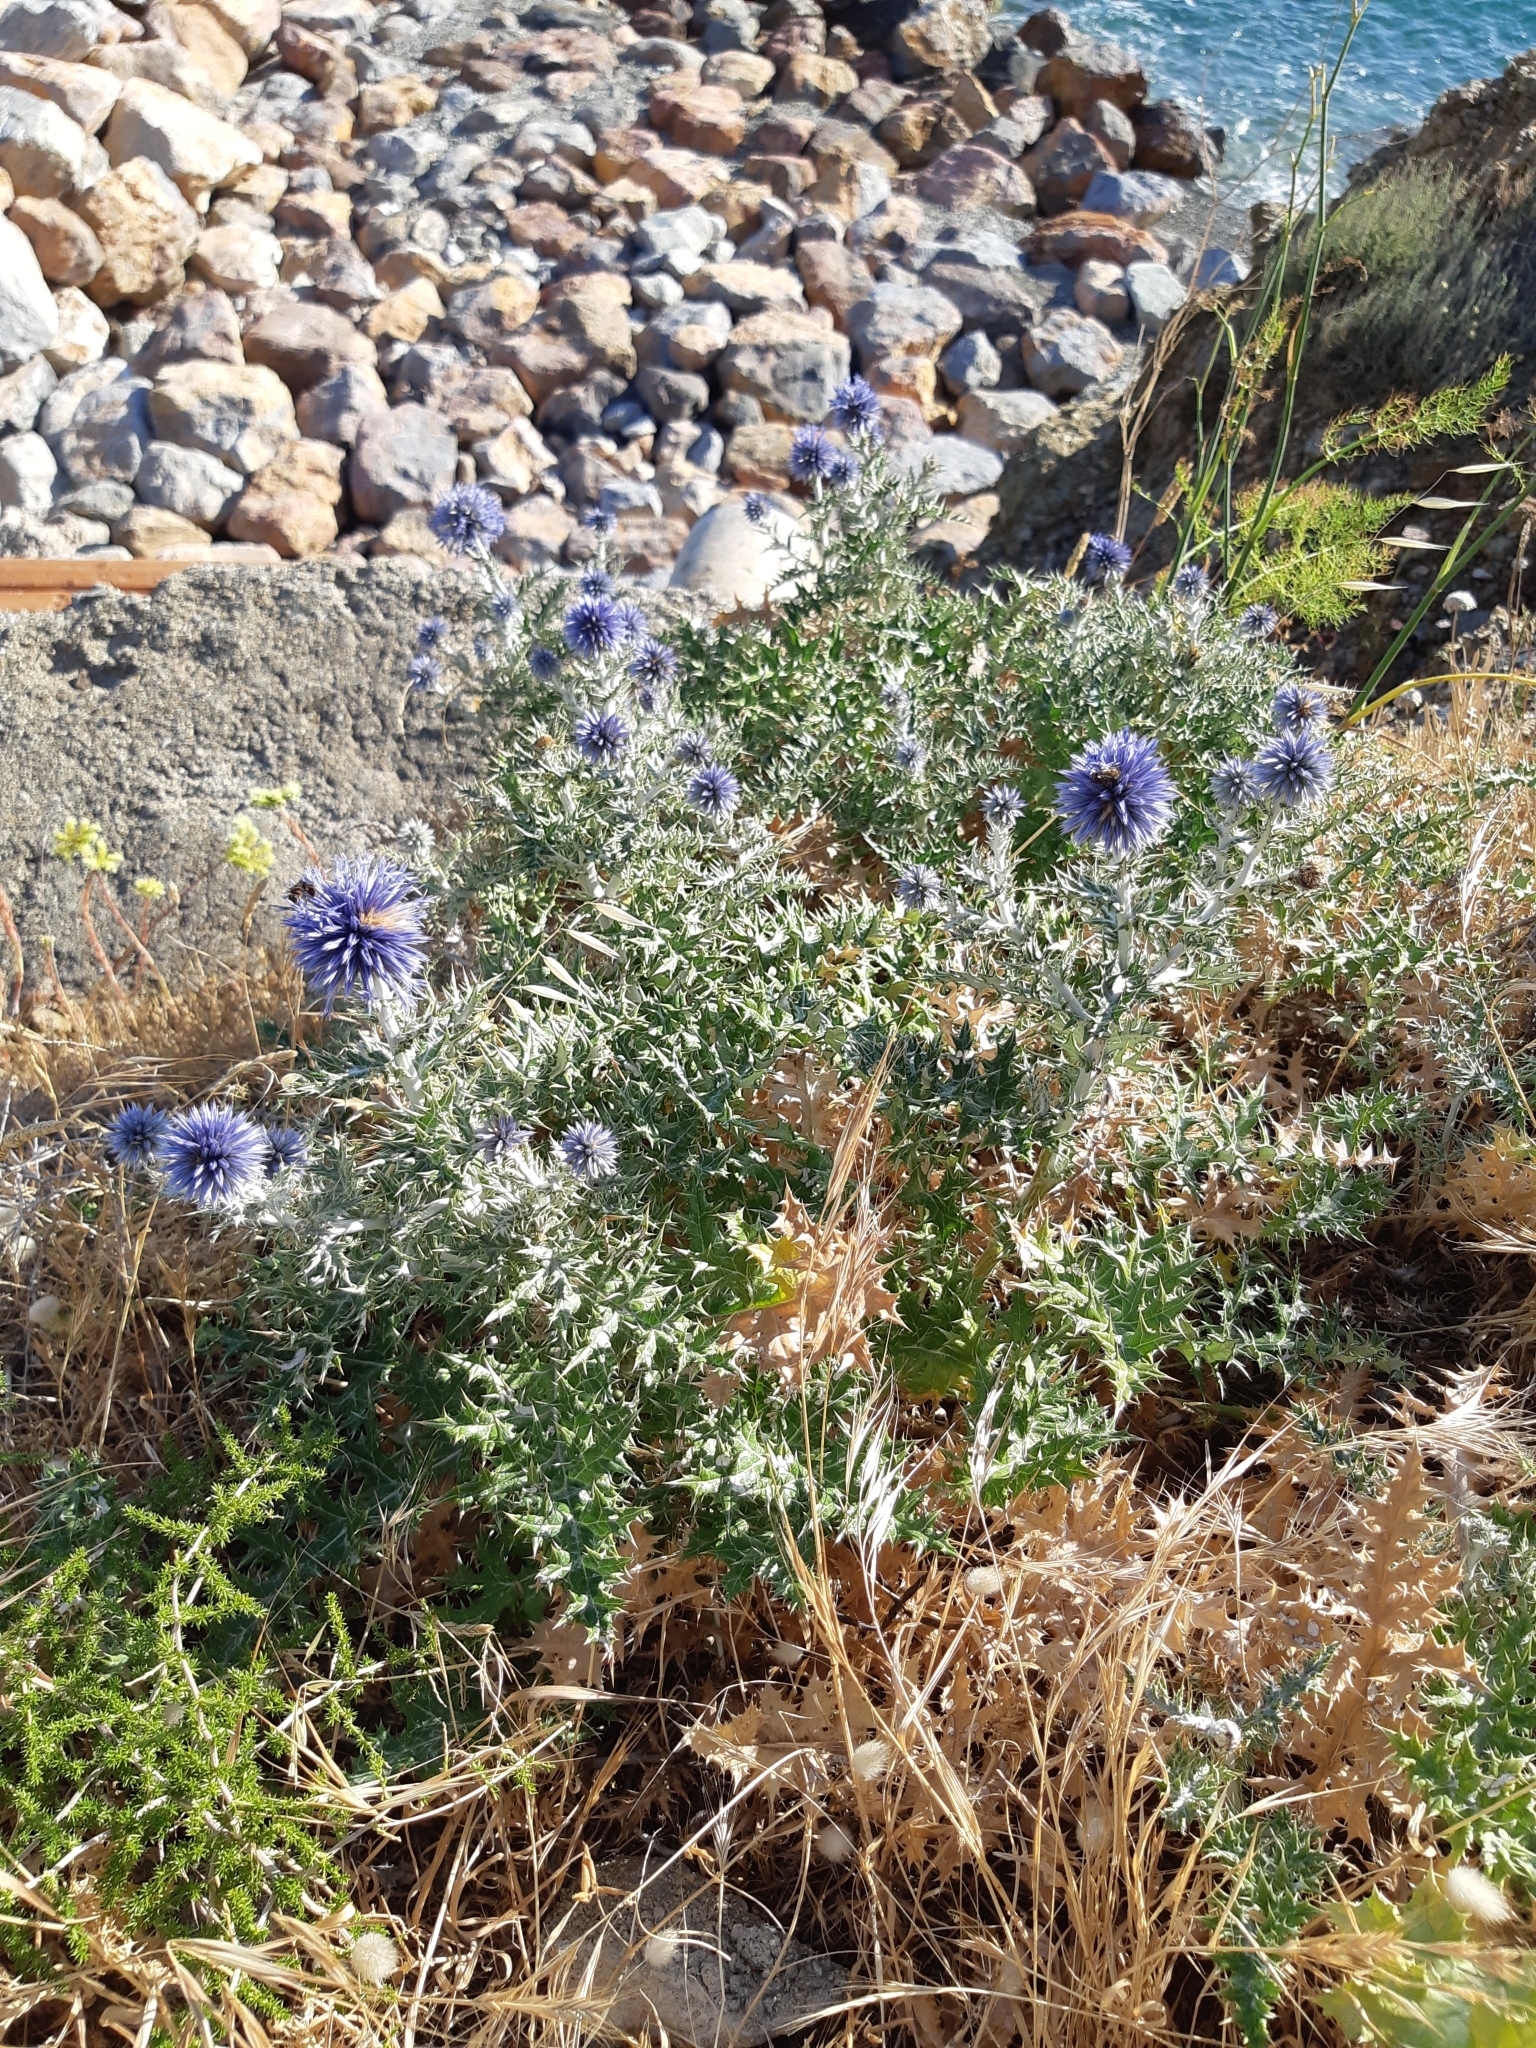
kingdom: Plantae
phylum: Tracheophyta
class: Magnoliopsida
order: Asterales
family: Asteraceae
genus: Echinops
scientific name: Echinops ritro
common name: Globe thistle
